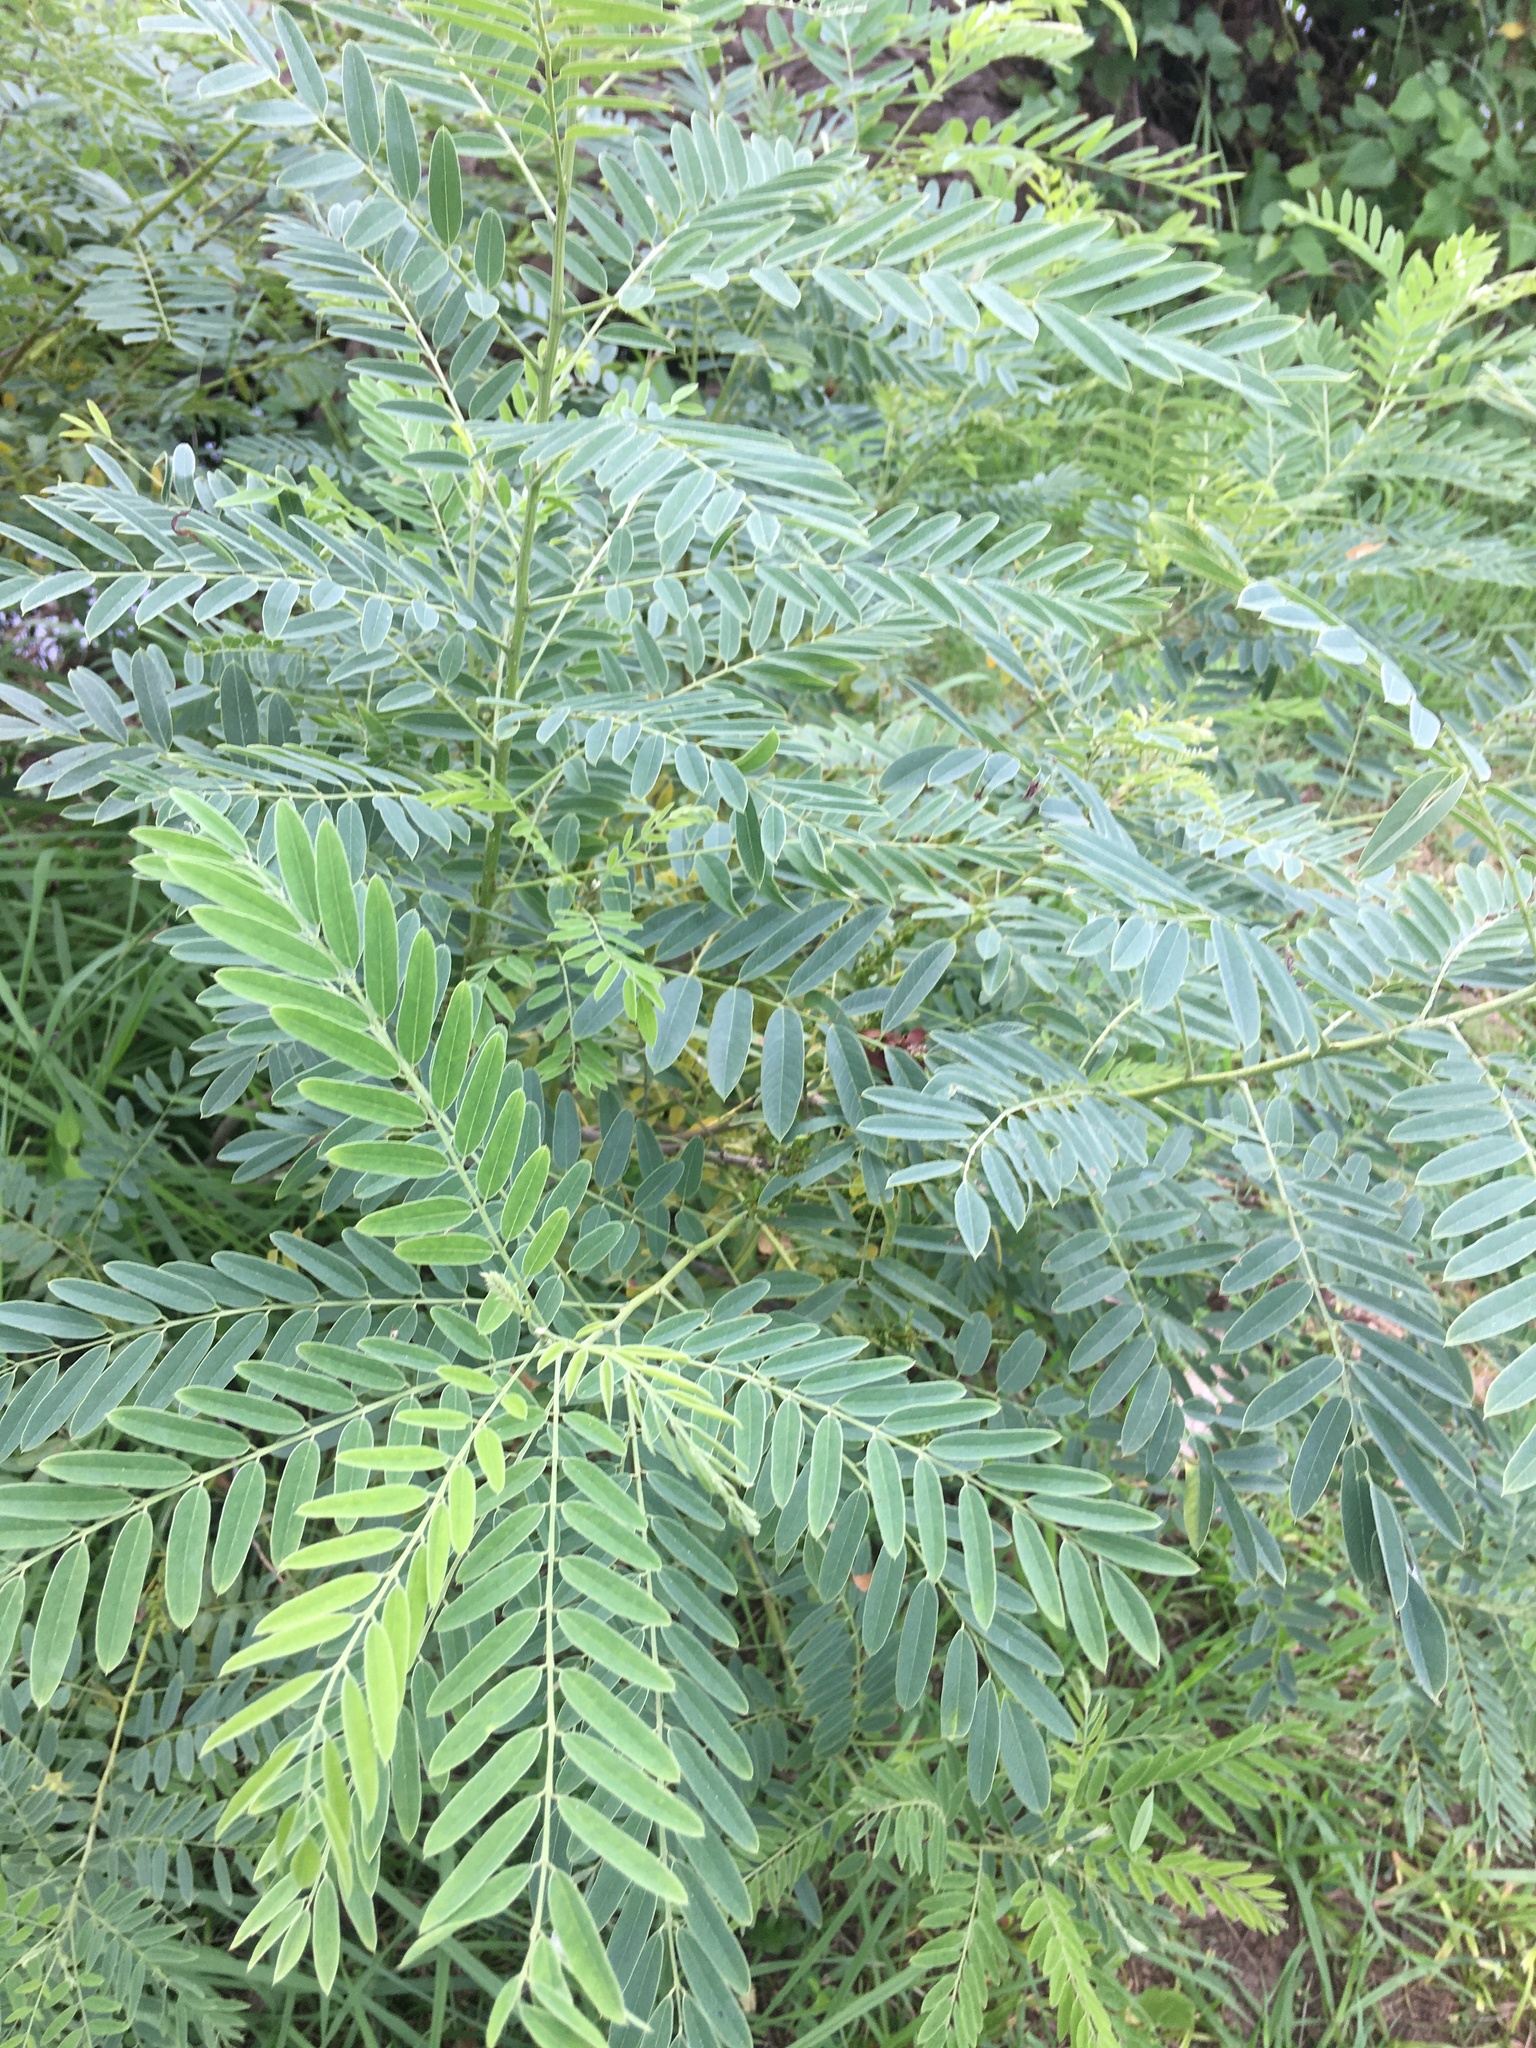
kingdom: Plantae
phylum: Tracheophyta
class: Magnoliopsida
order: Fabales
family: Fabaceae
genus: Amorpha
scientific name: Amorpha fruticosa
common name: False indigo
